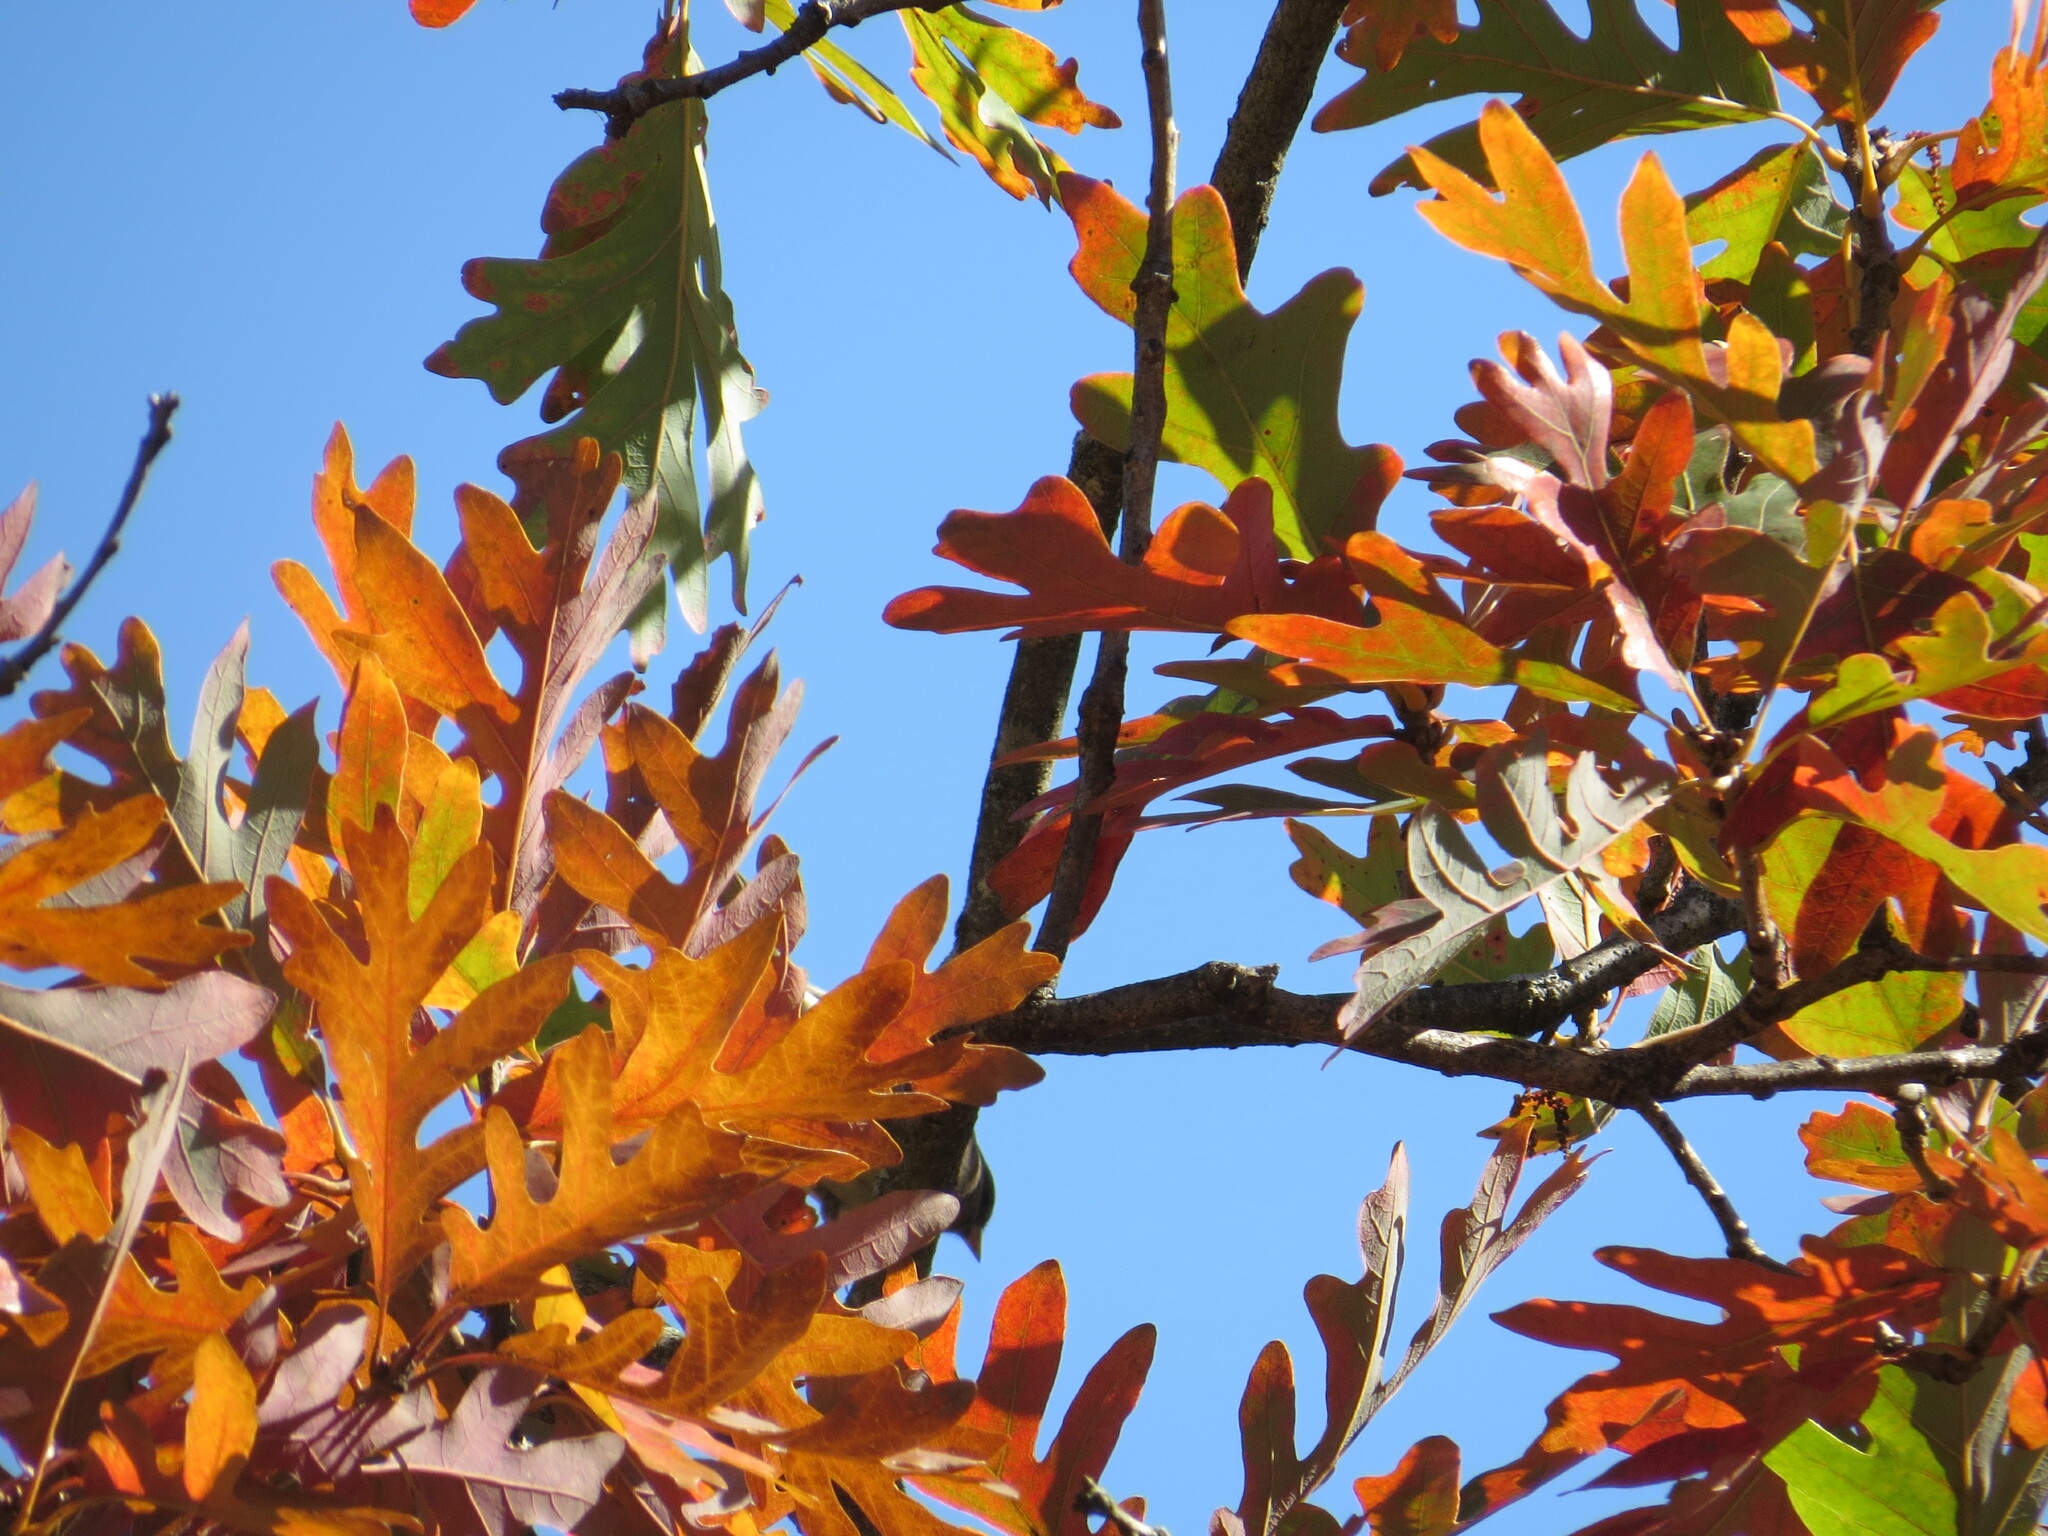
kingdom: Plantae
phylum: Tracheophyta
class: Magnoliopsida
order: Fagales
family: Fagaceae
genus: Quercus
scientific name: Quercus alba
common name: White oak
